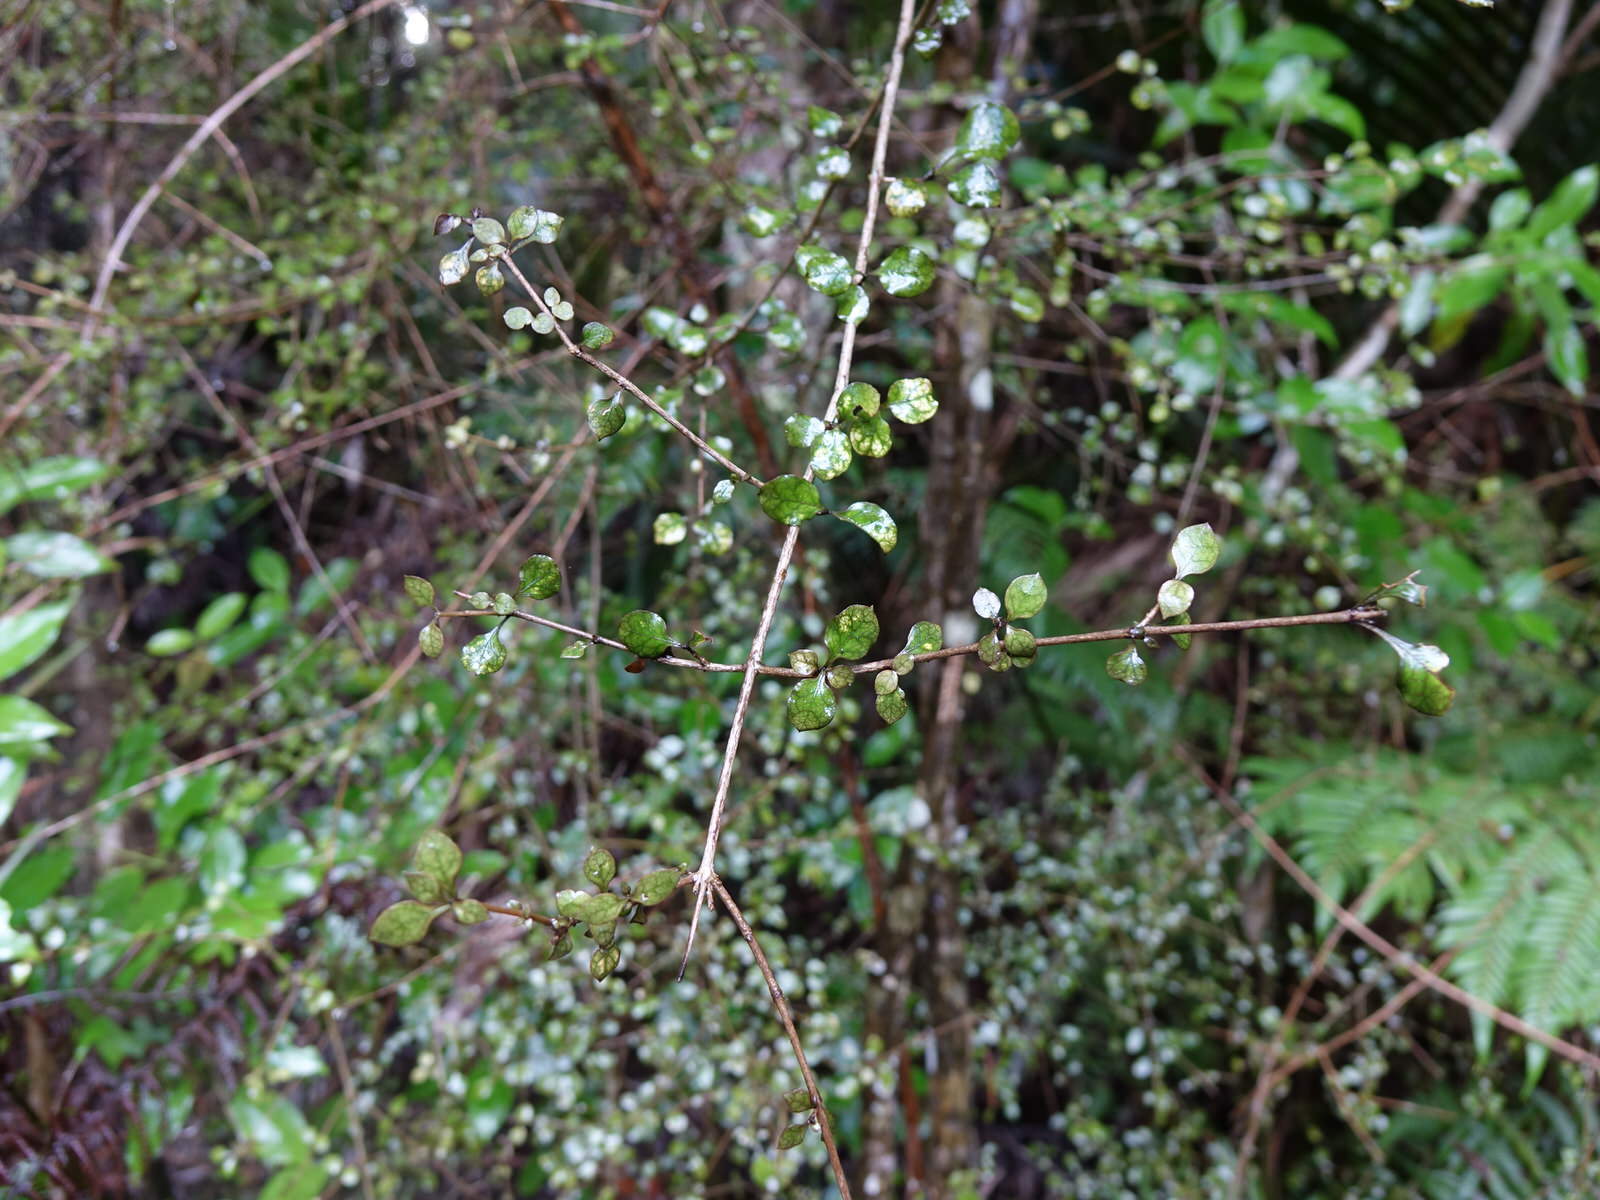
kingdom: Plantae
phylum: Tracheophyta
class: Magnoliopsida
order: Gentianales
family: Rubiaceae
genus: Coprosma
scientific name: Coprosma areolata
